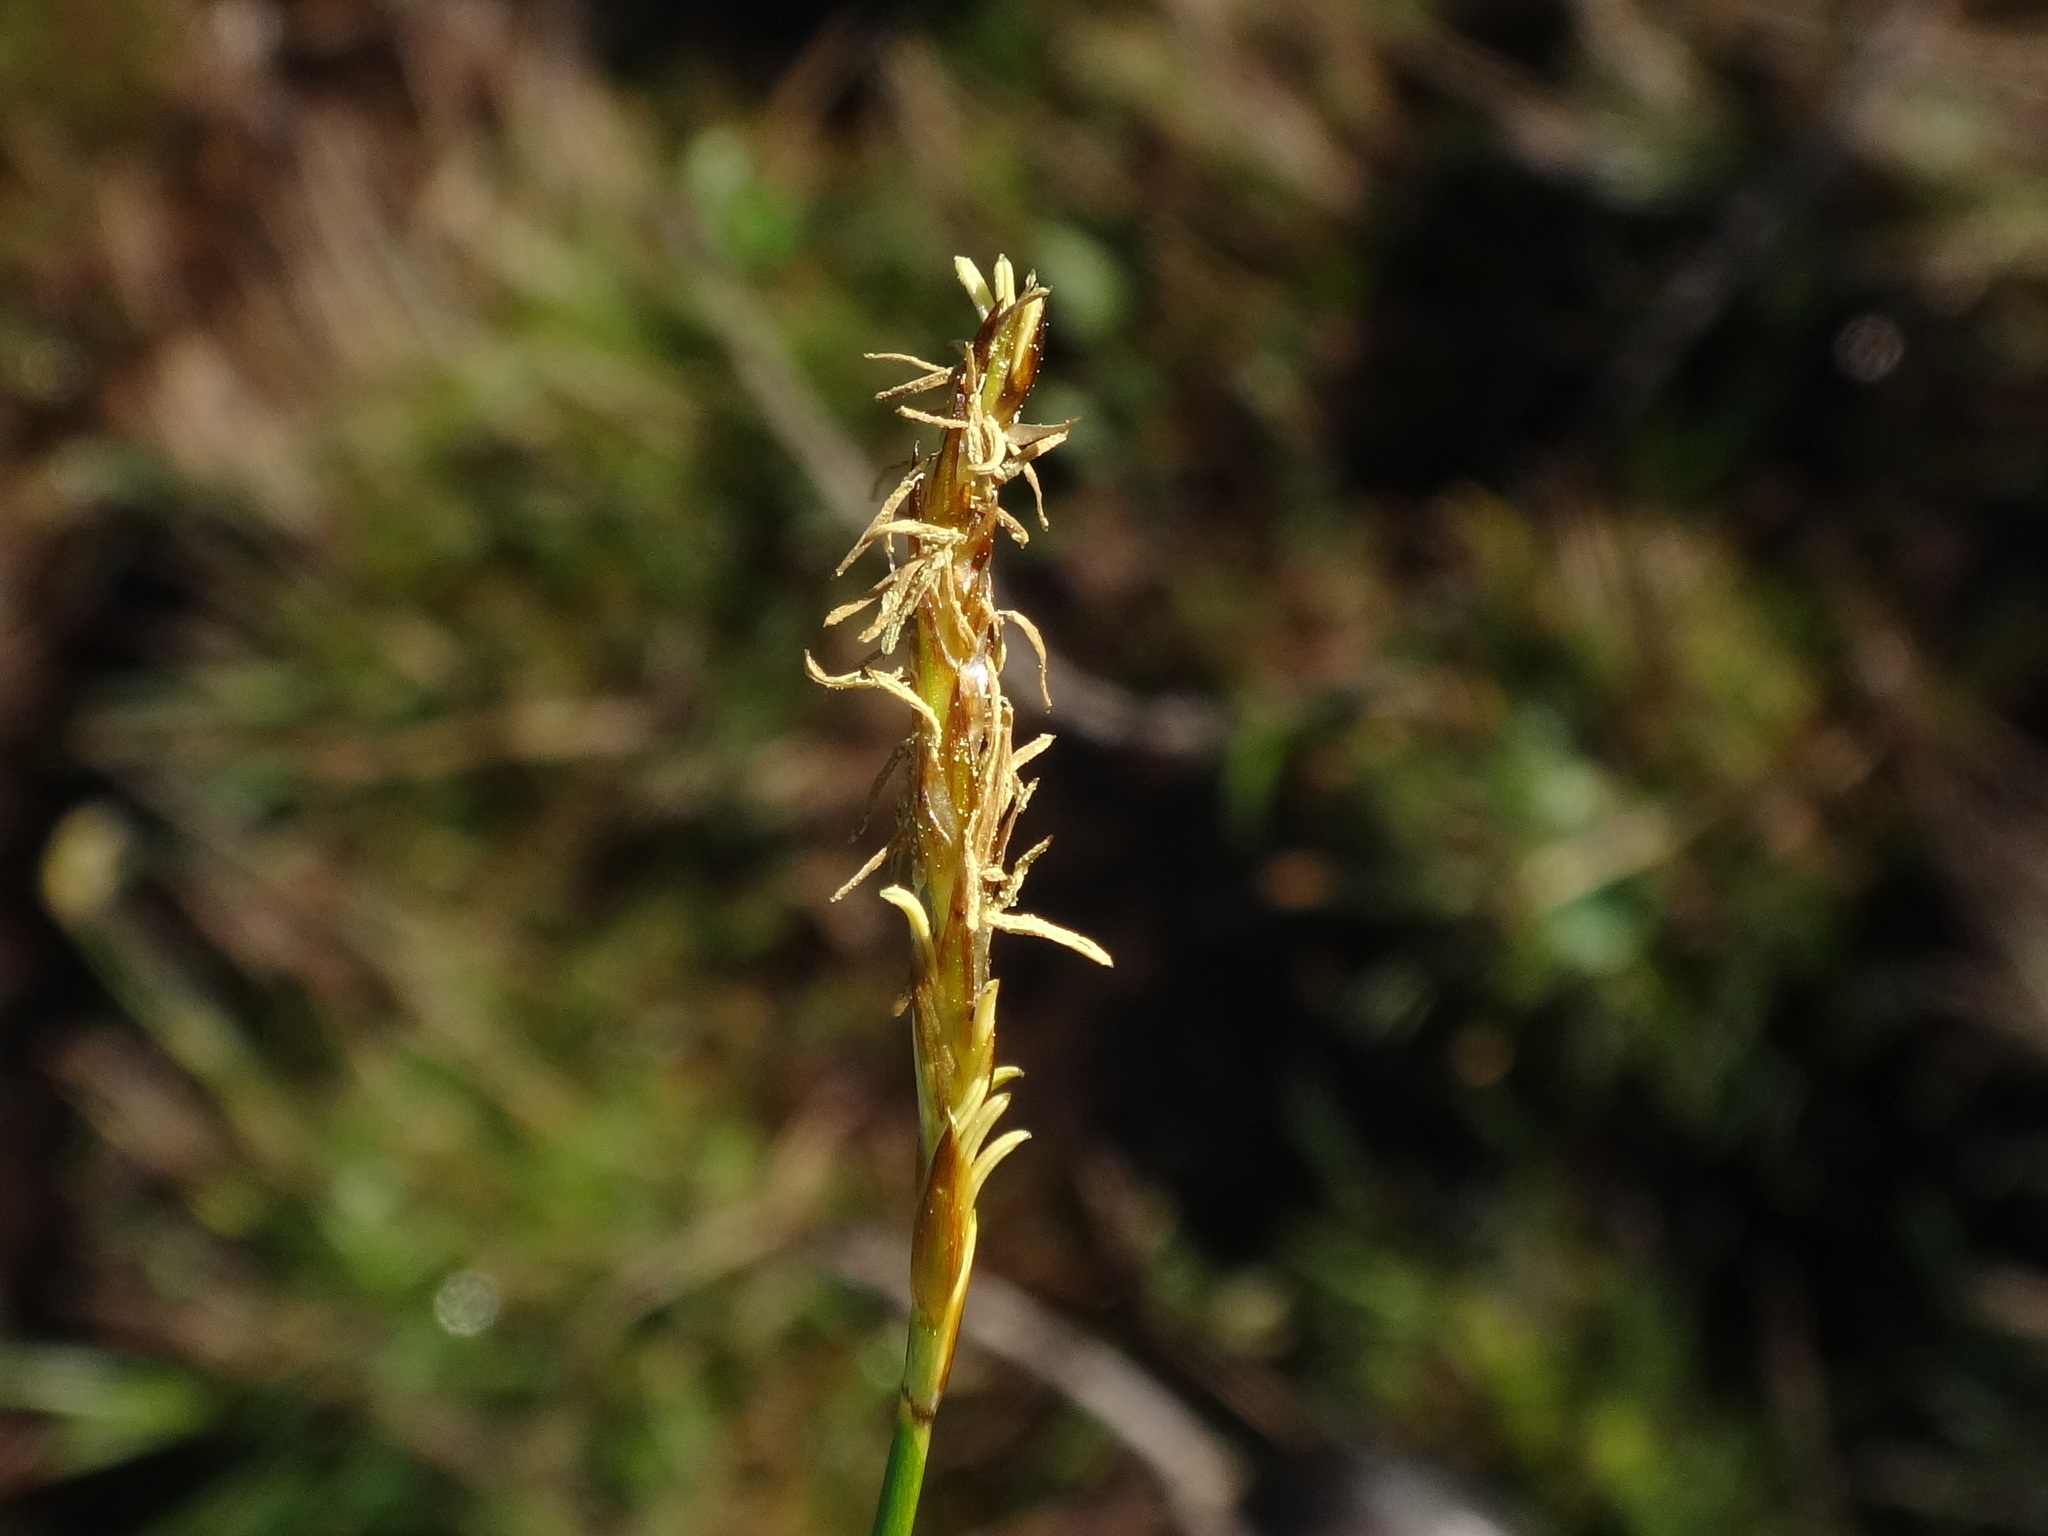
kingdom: Plantae
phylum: Tracheophyta
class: Liliopsida
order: Poales
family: Cyperaceae
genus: Carex
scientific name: Carex davalliana
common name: Davall's sedge
